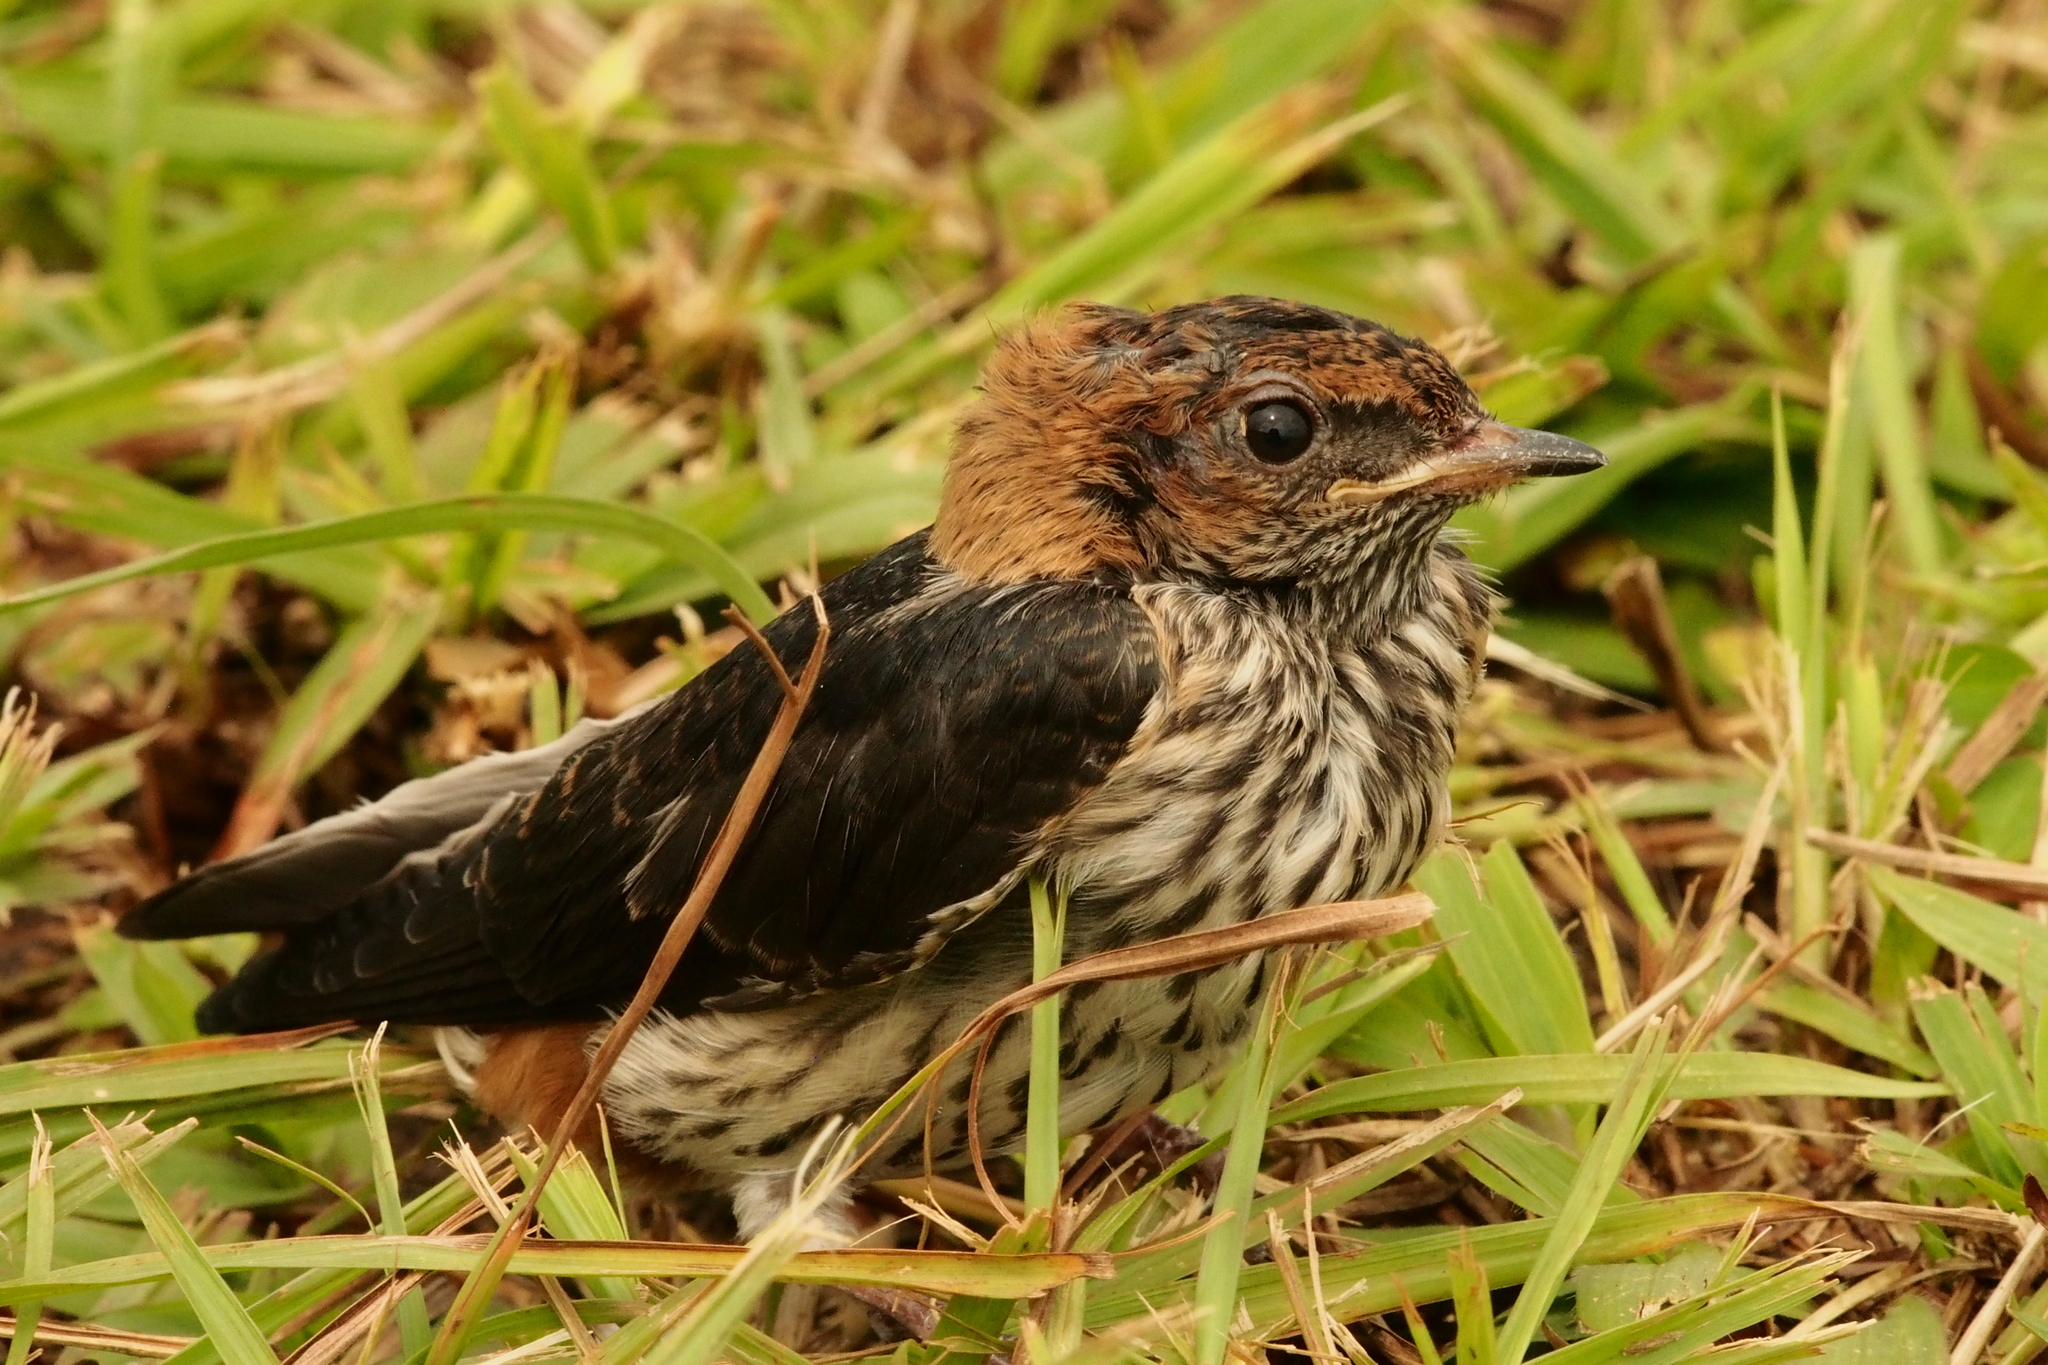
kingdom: Animalia
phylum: Chordata
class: Aves
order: Passeriformes
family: Hirundinidae
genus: Cecropis
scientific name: Cecropis abyssinica
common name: Lesser striped-swallow
